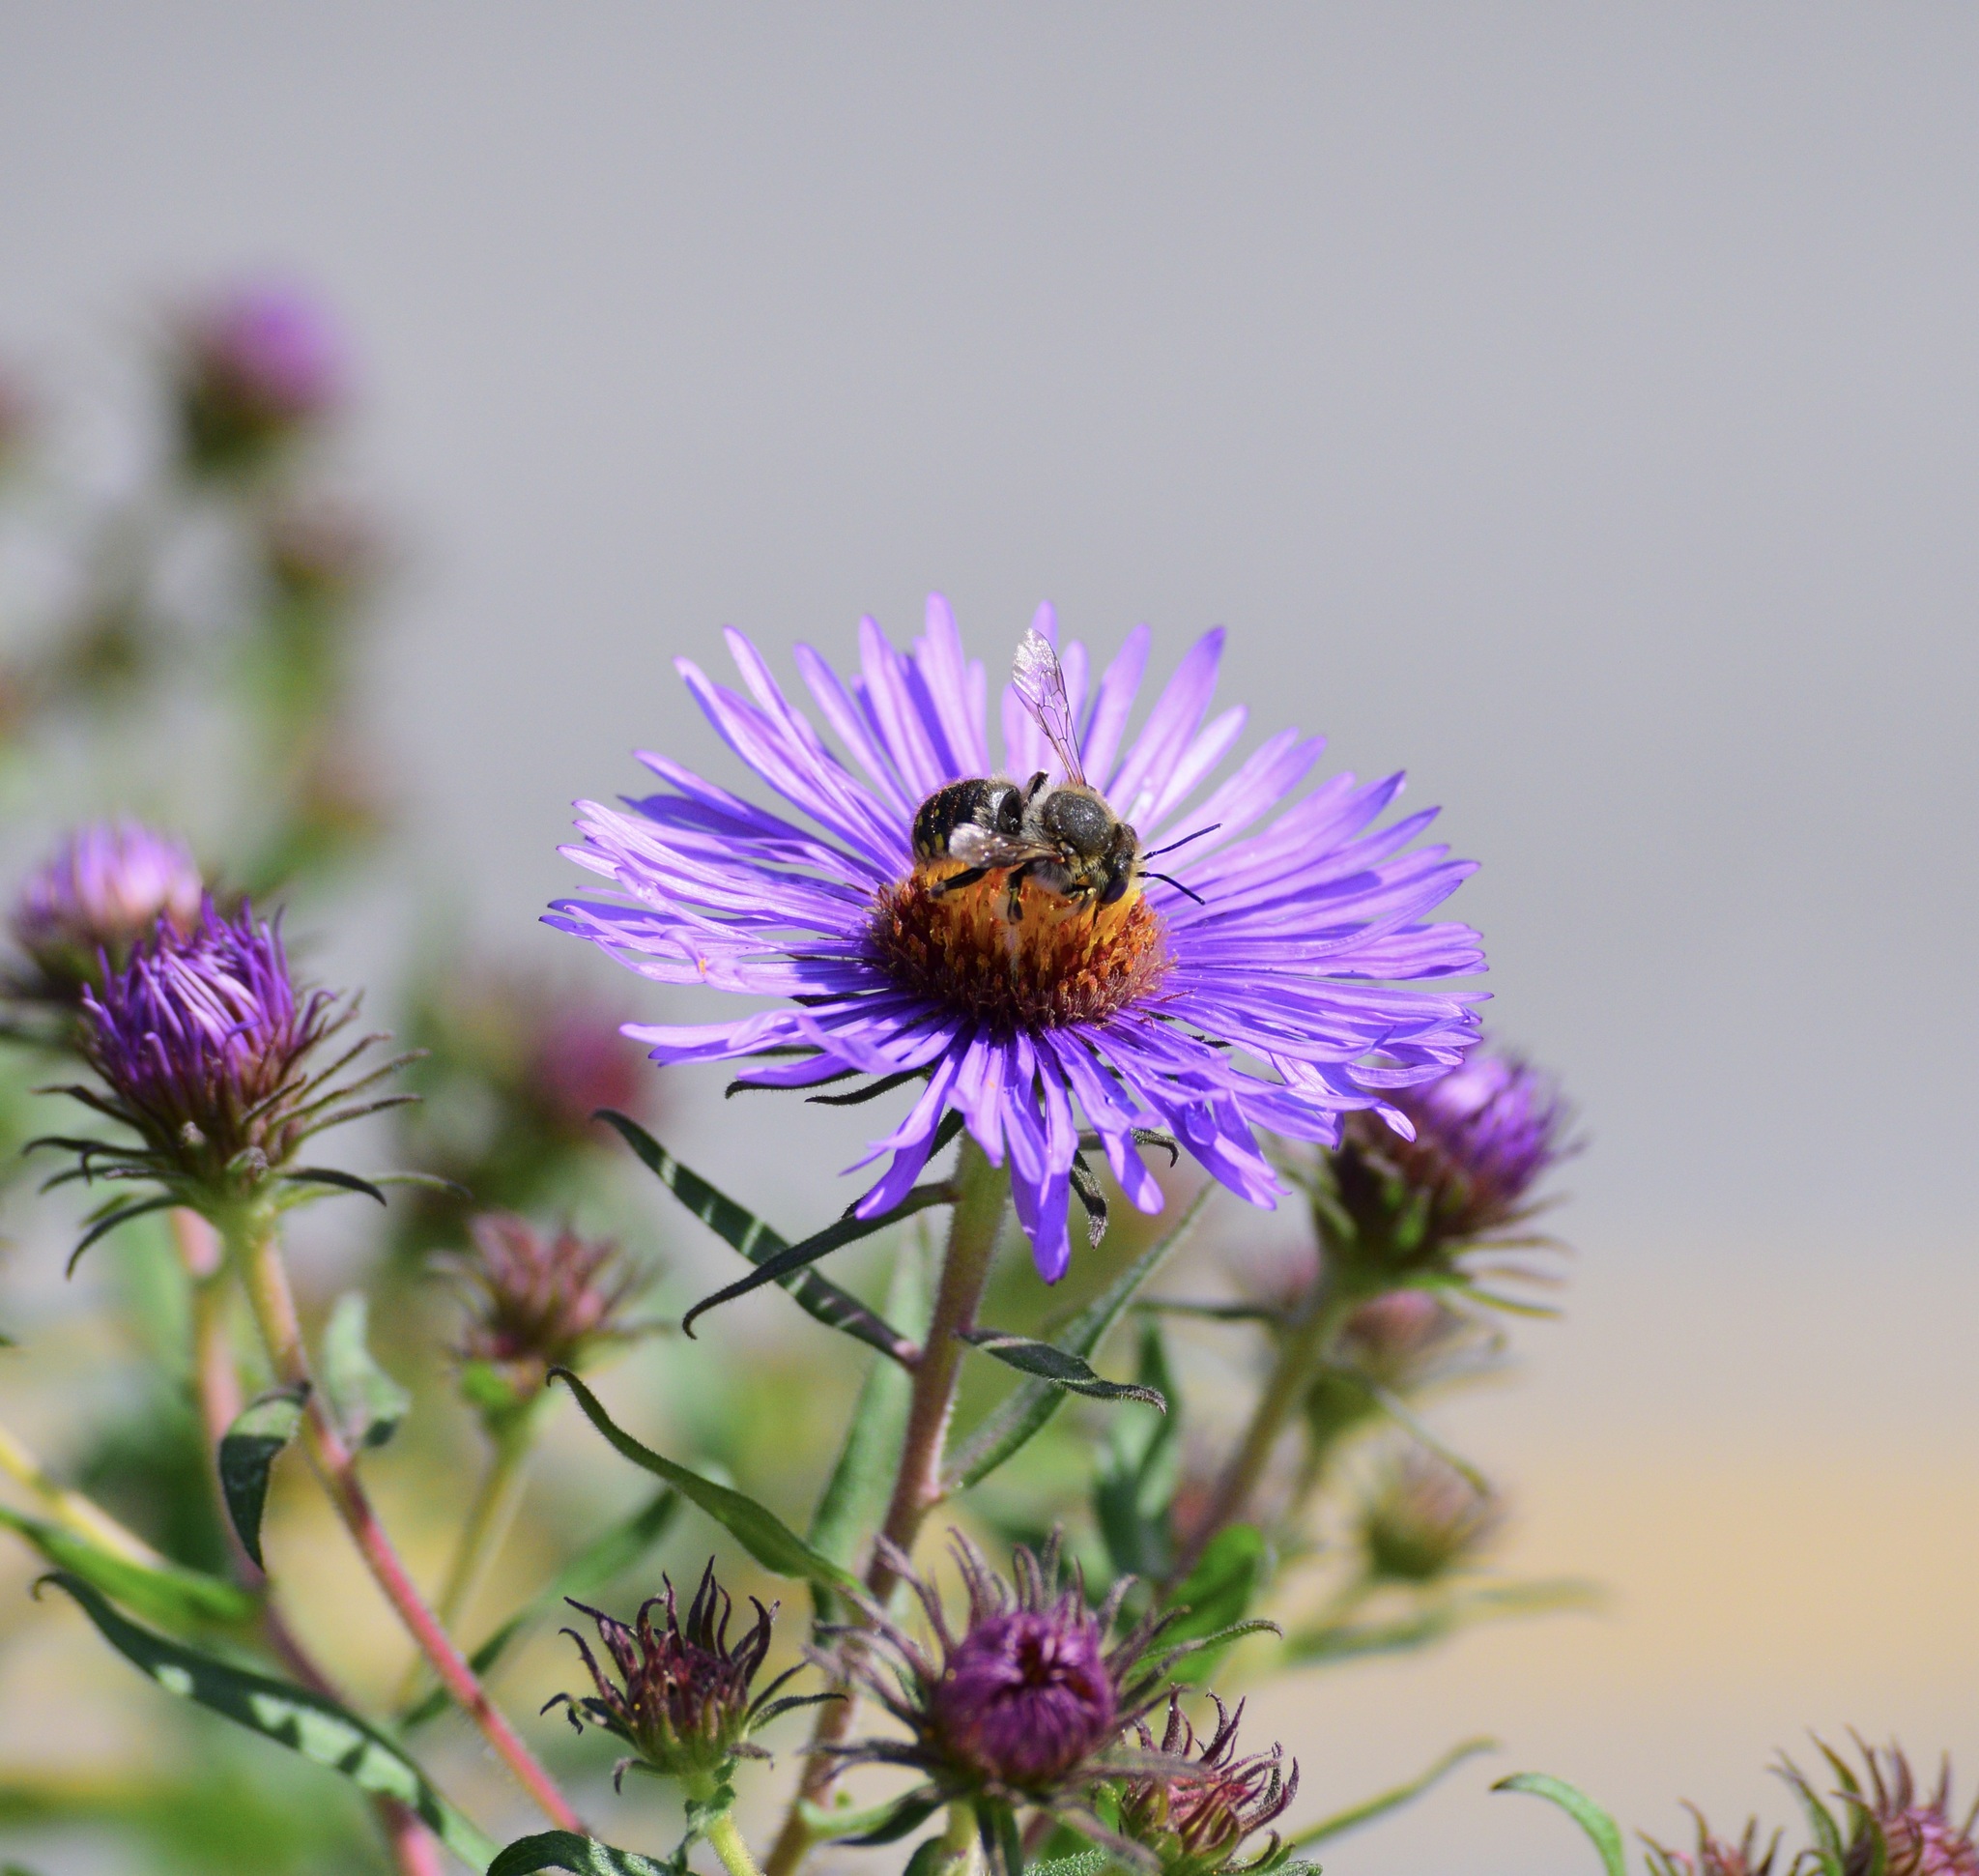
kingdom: Animalia
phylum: Arthropoda
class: Insecta
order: Hymenoptera
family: Megachilidae
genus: Anthidium
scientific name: Anthidium manicatum
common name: Wool carder bee
